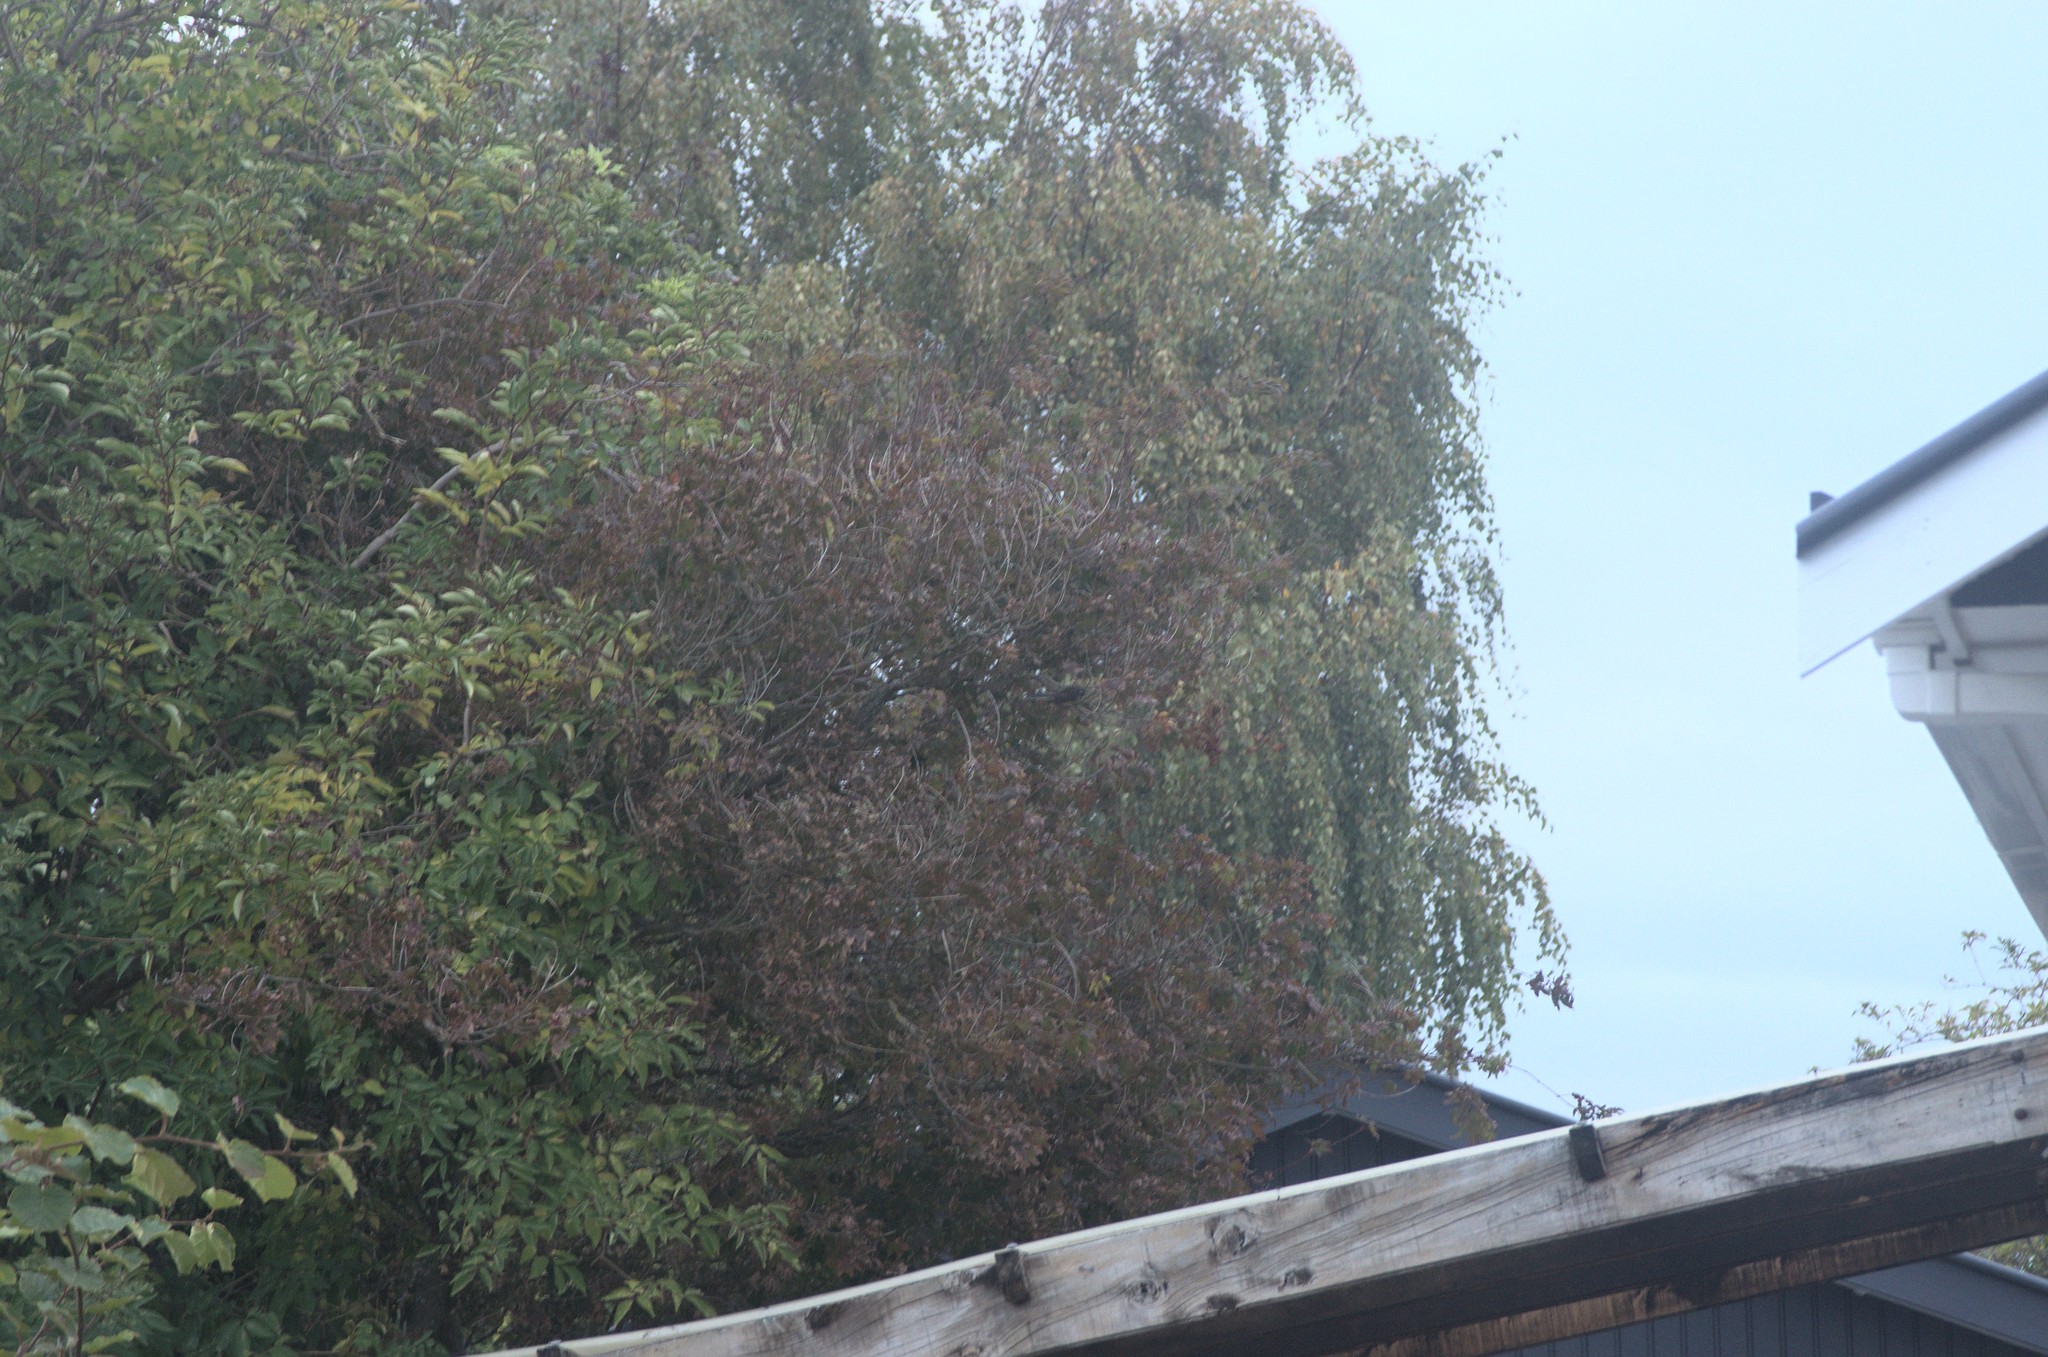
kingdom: Animalia
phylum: Chordata
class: Aves
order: Passeriformes
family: Rhipiduridae
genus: Rhipidura
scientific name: Rhipidura fuliginosa
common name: New zealand fantail
